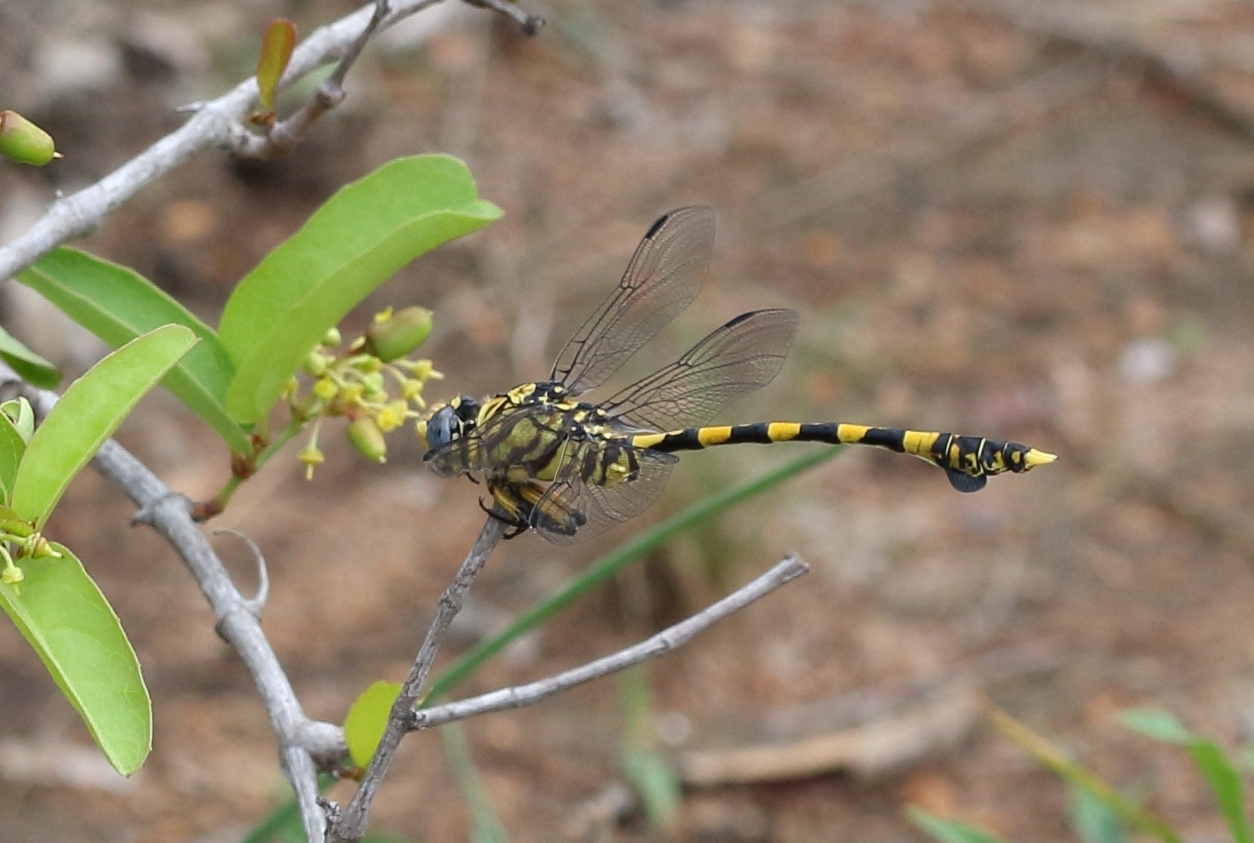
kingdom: Animalia
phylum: Arthropoda
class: Insecta
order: Odonata
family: Gomphidae
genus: Ictinogomphus
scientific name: Ictinogomphus ferox
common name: Common tiger
